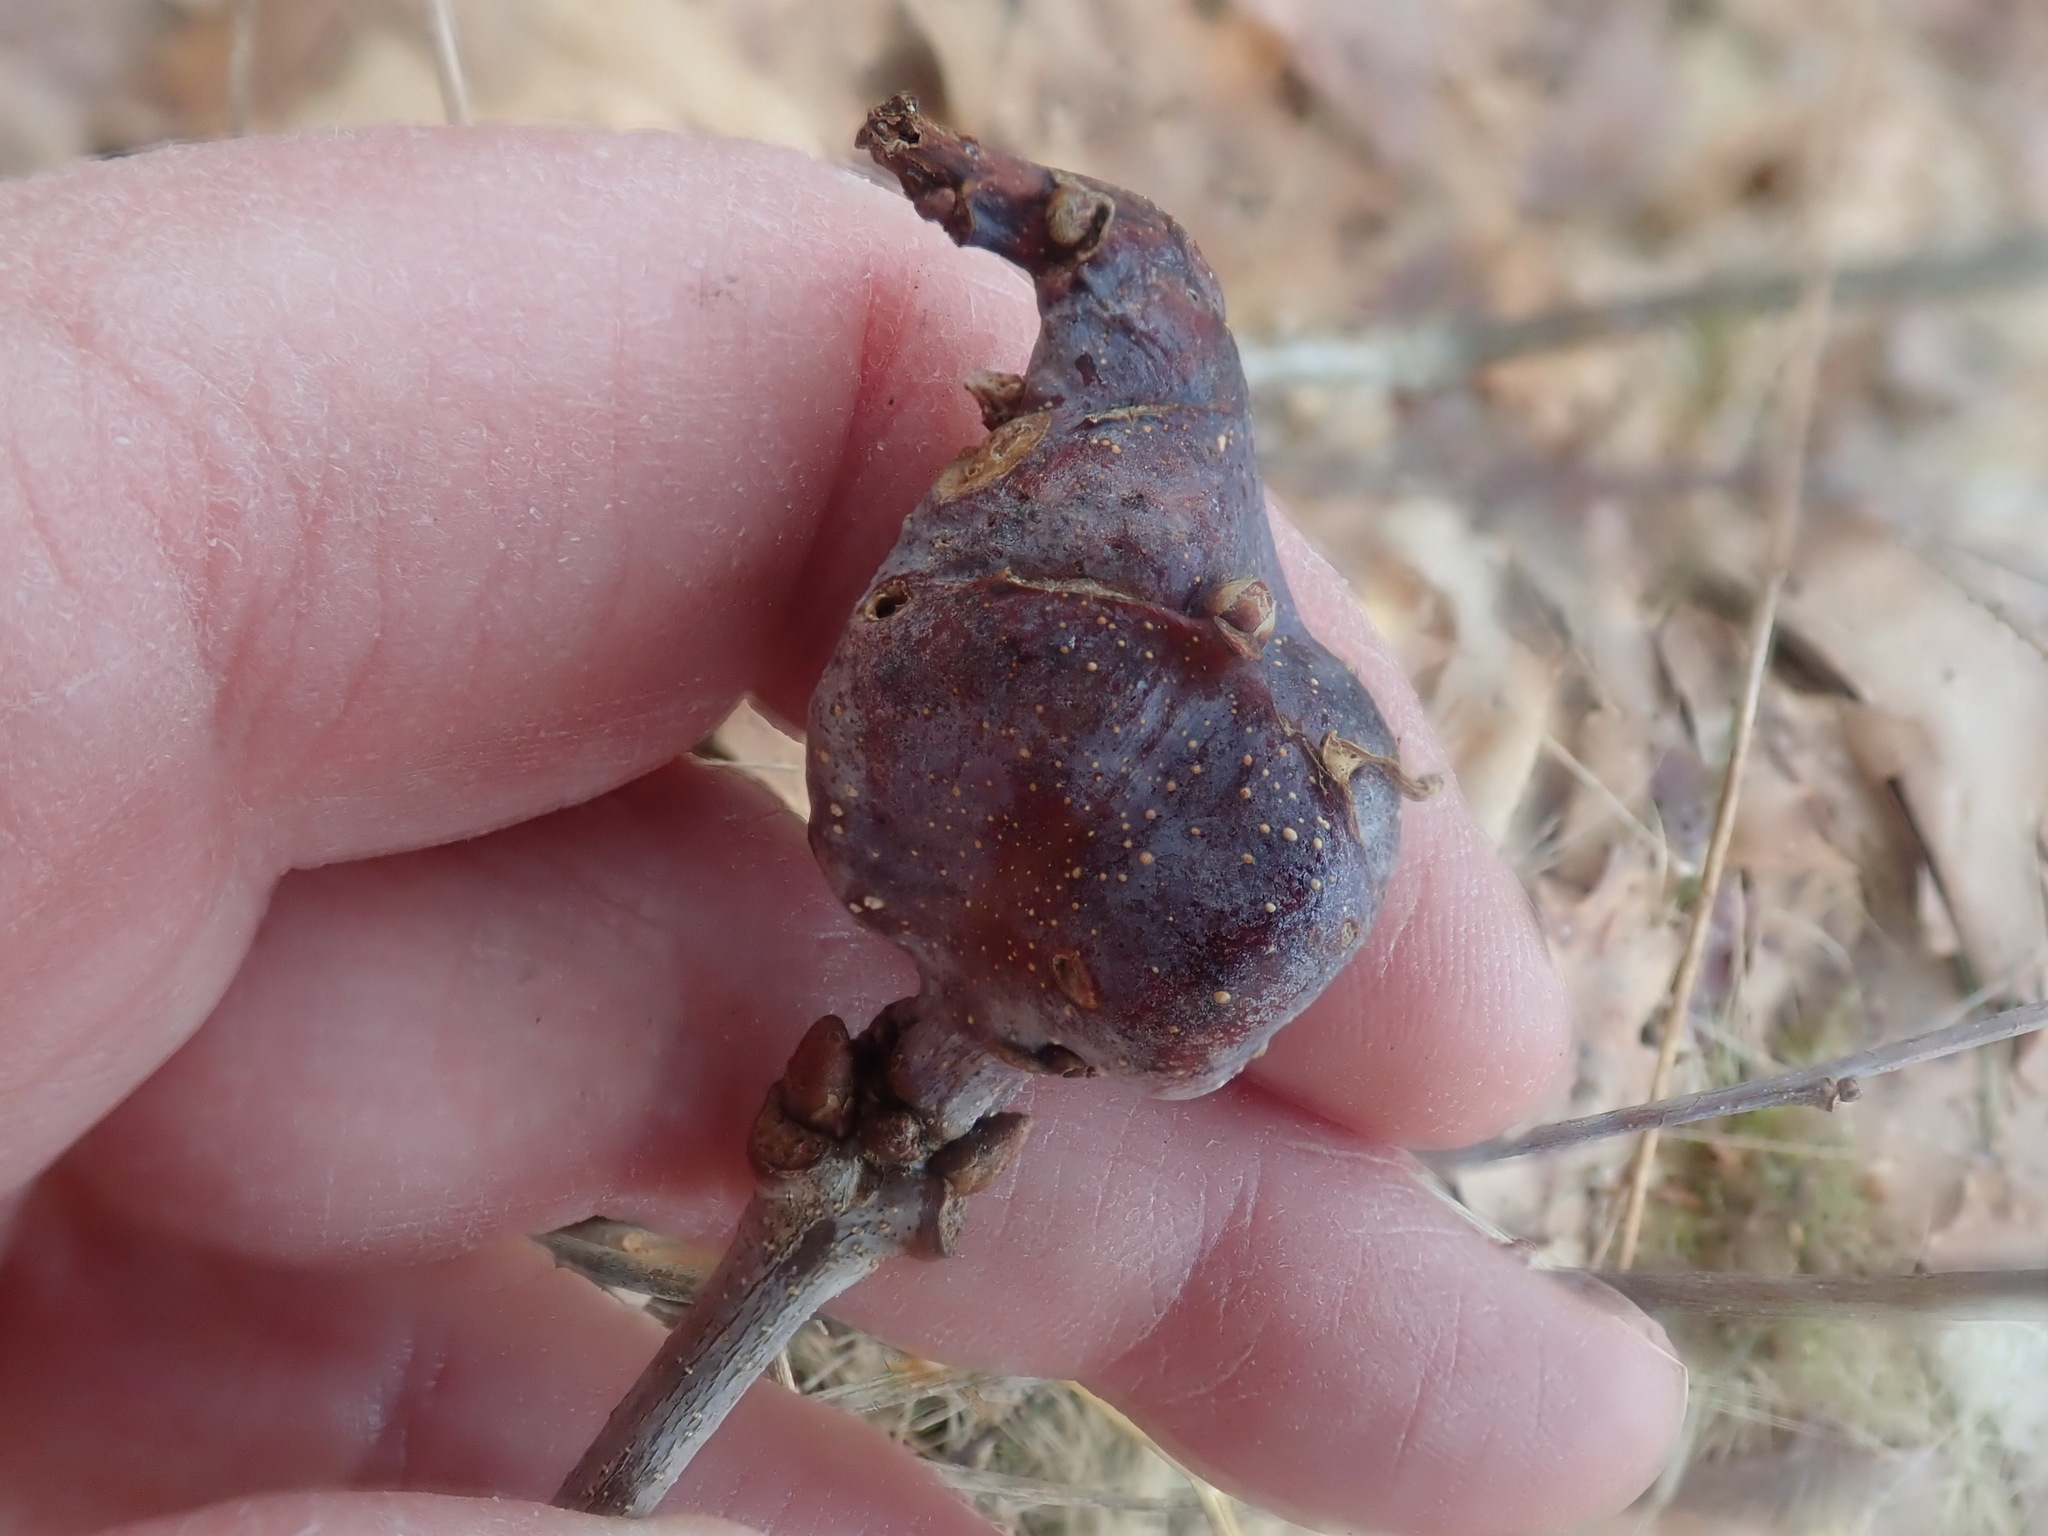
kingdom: Animalia
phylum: Arthropoda
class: Insecta
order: Hymenoptera
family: Cynipidae
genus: Neuroterus
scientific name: Neuroterus quercusbaccarum
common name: Common spangle gall
